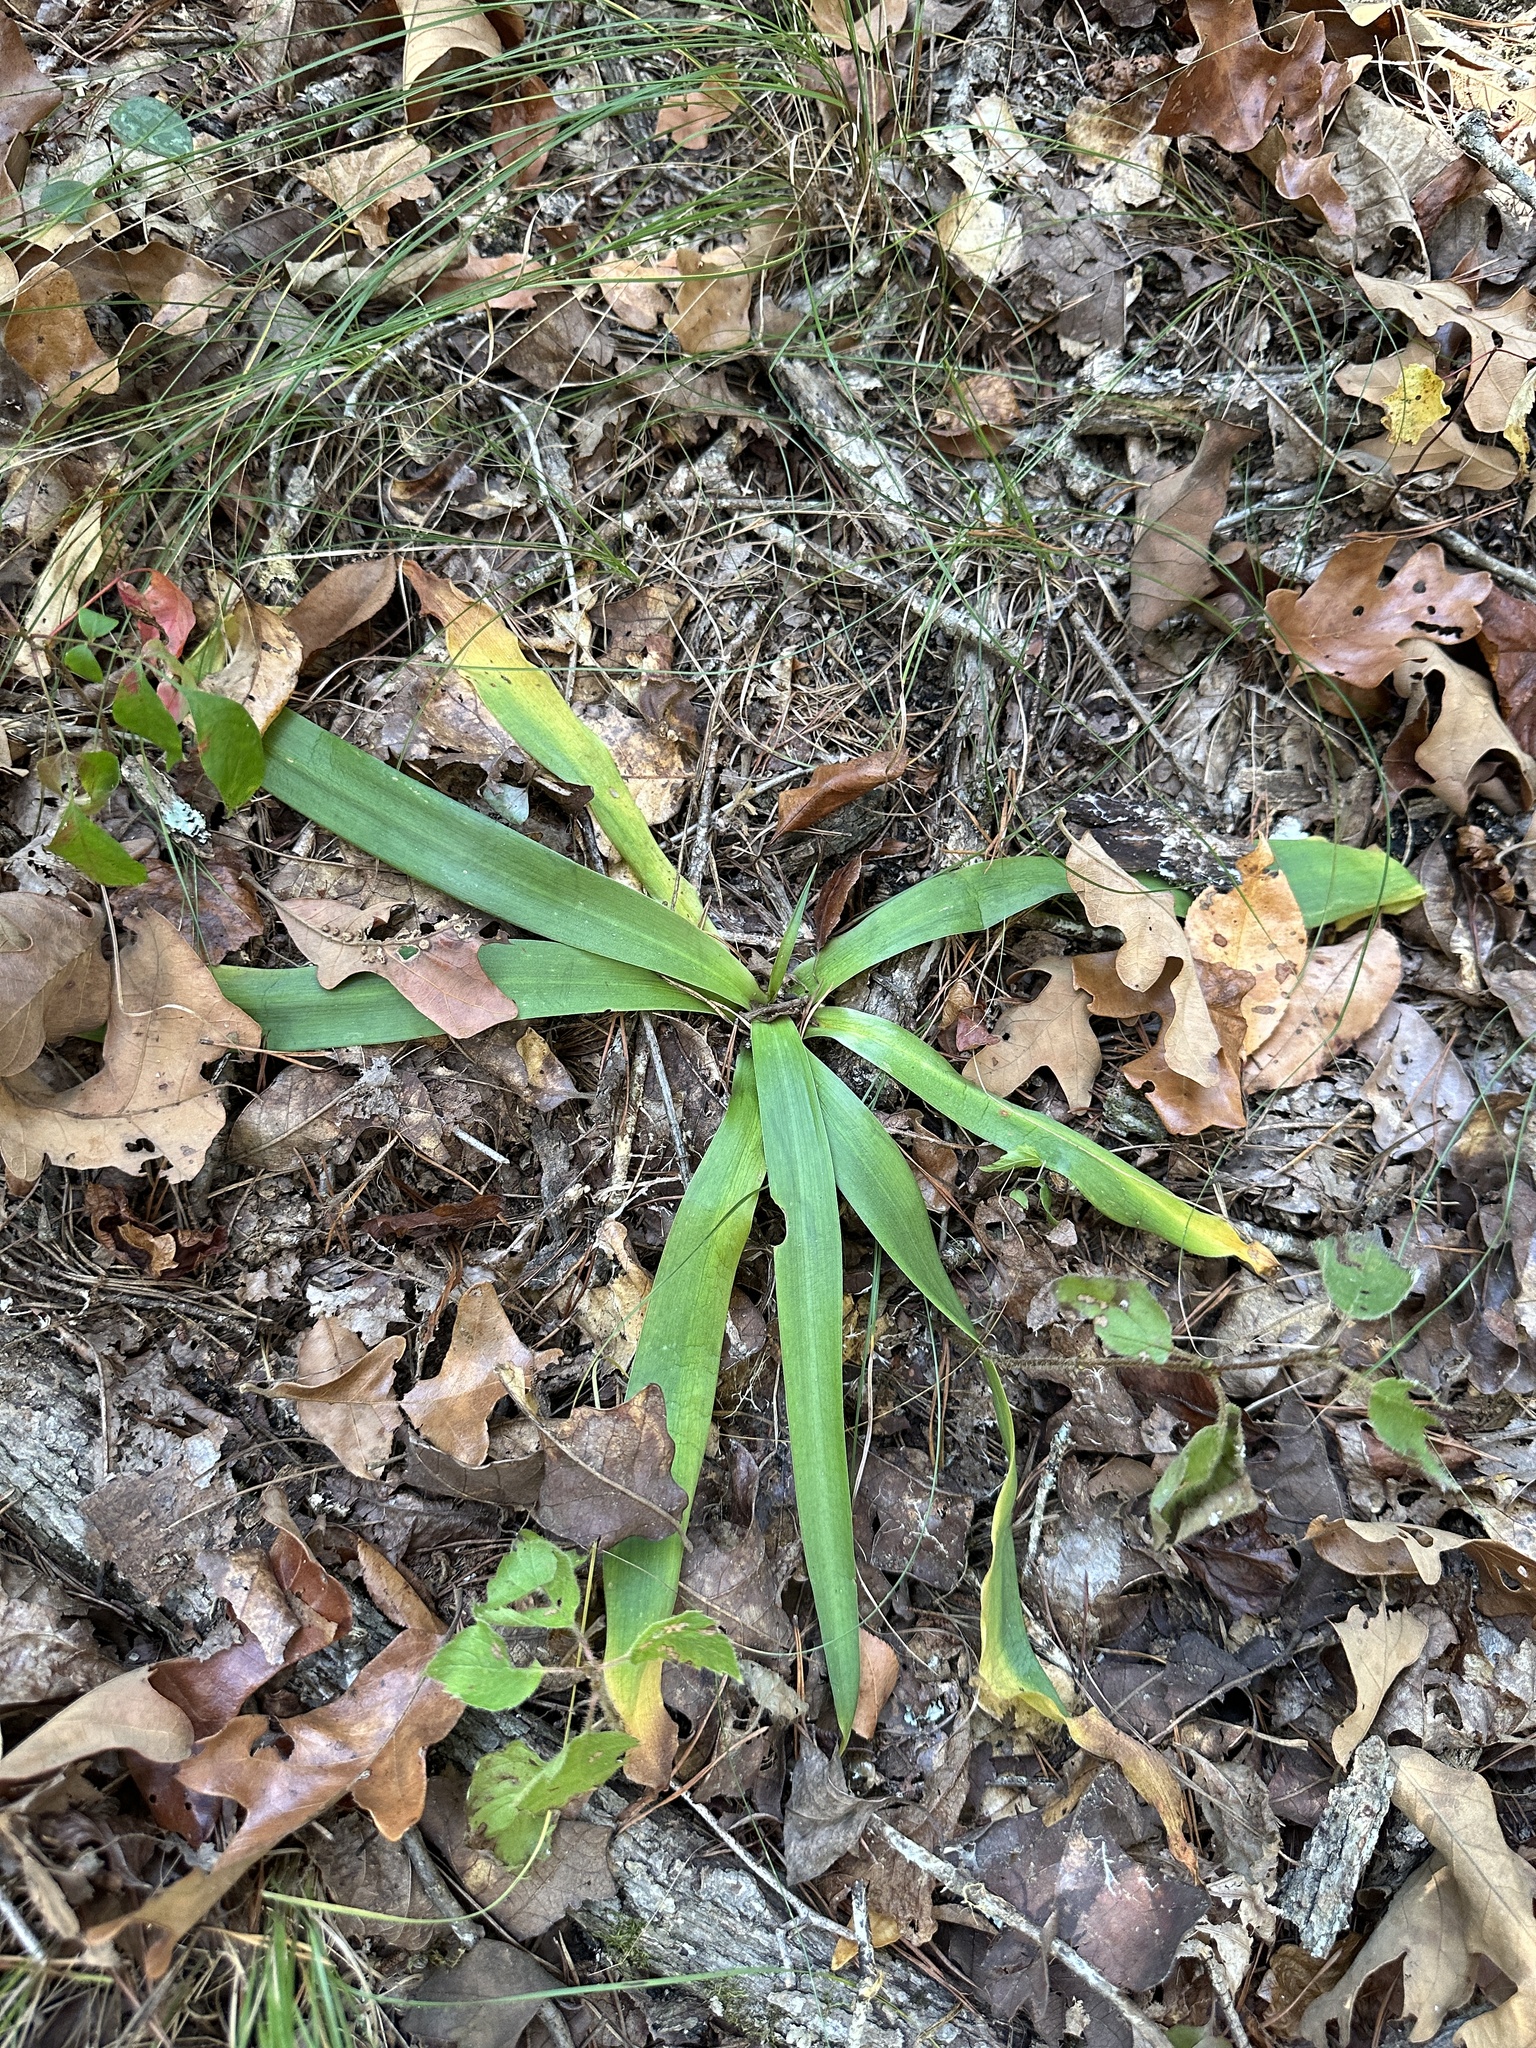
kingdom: Plantae
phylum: Tracheophyta
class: Liliopsida
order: Asparagales
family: Asparagaceae
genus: Agave
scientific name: Agave virginica
